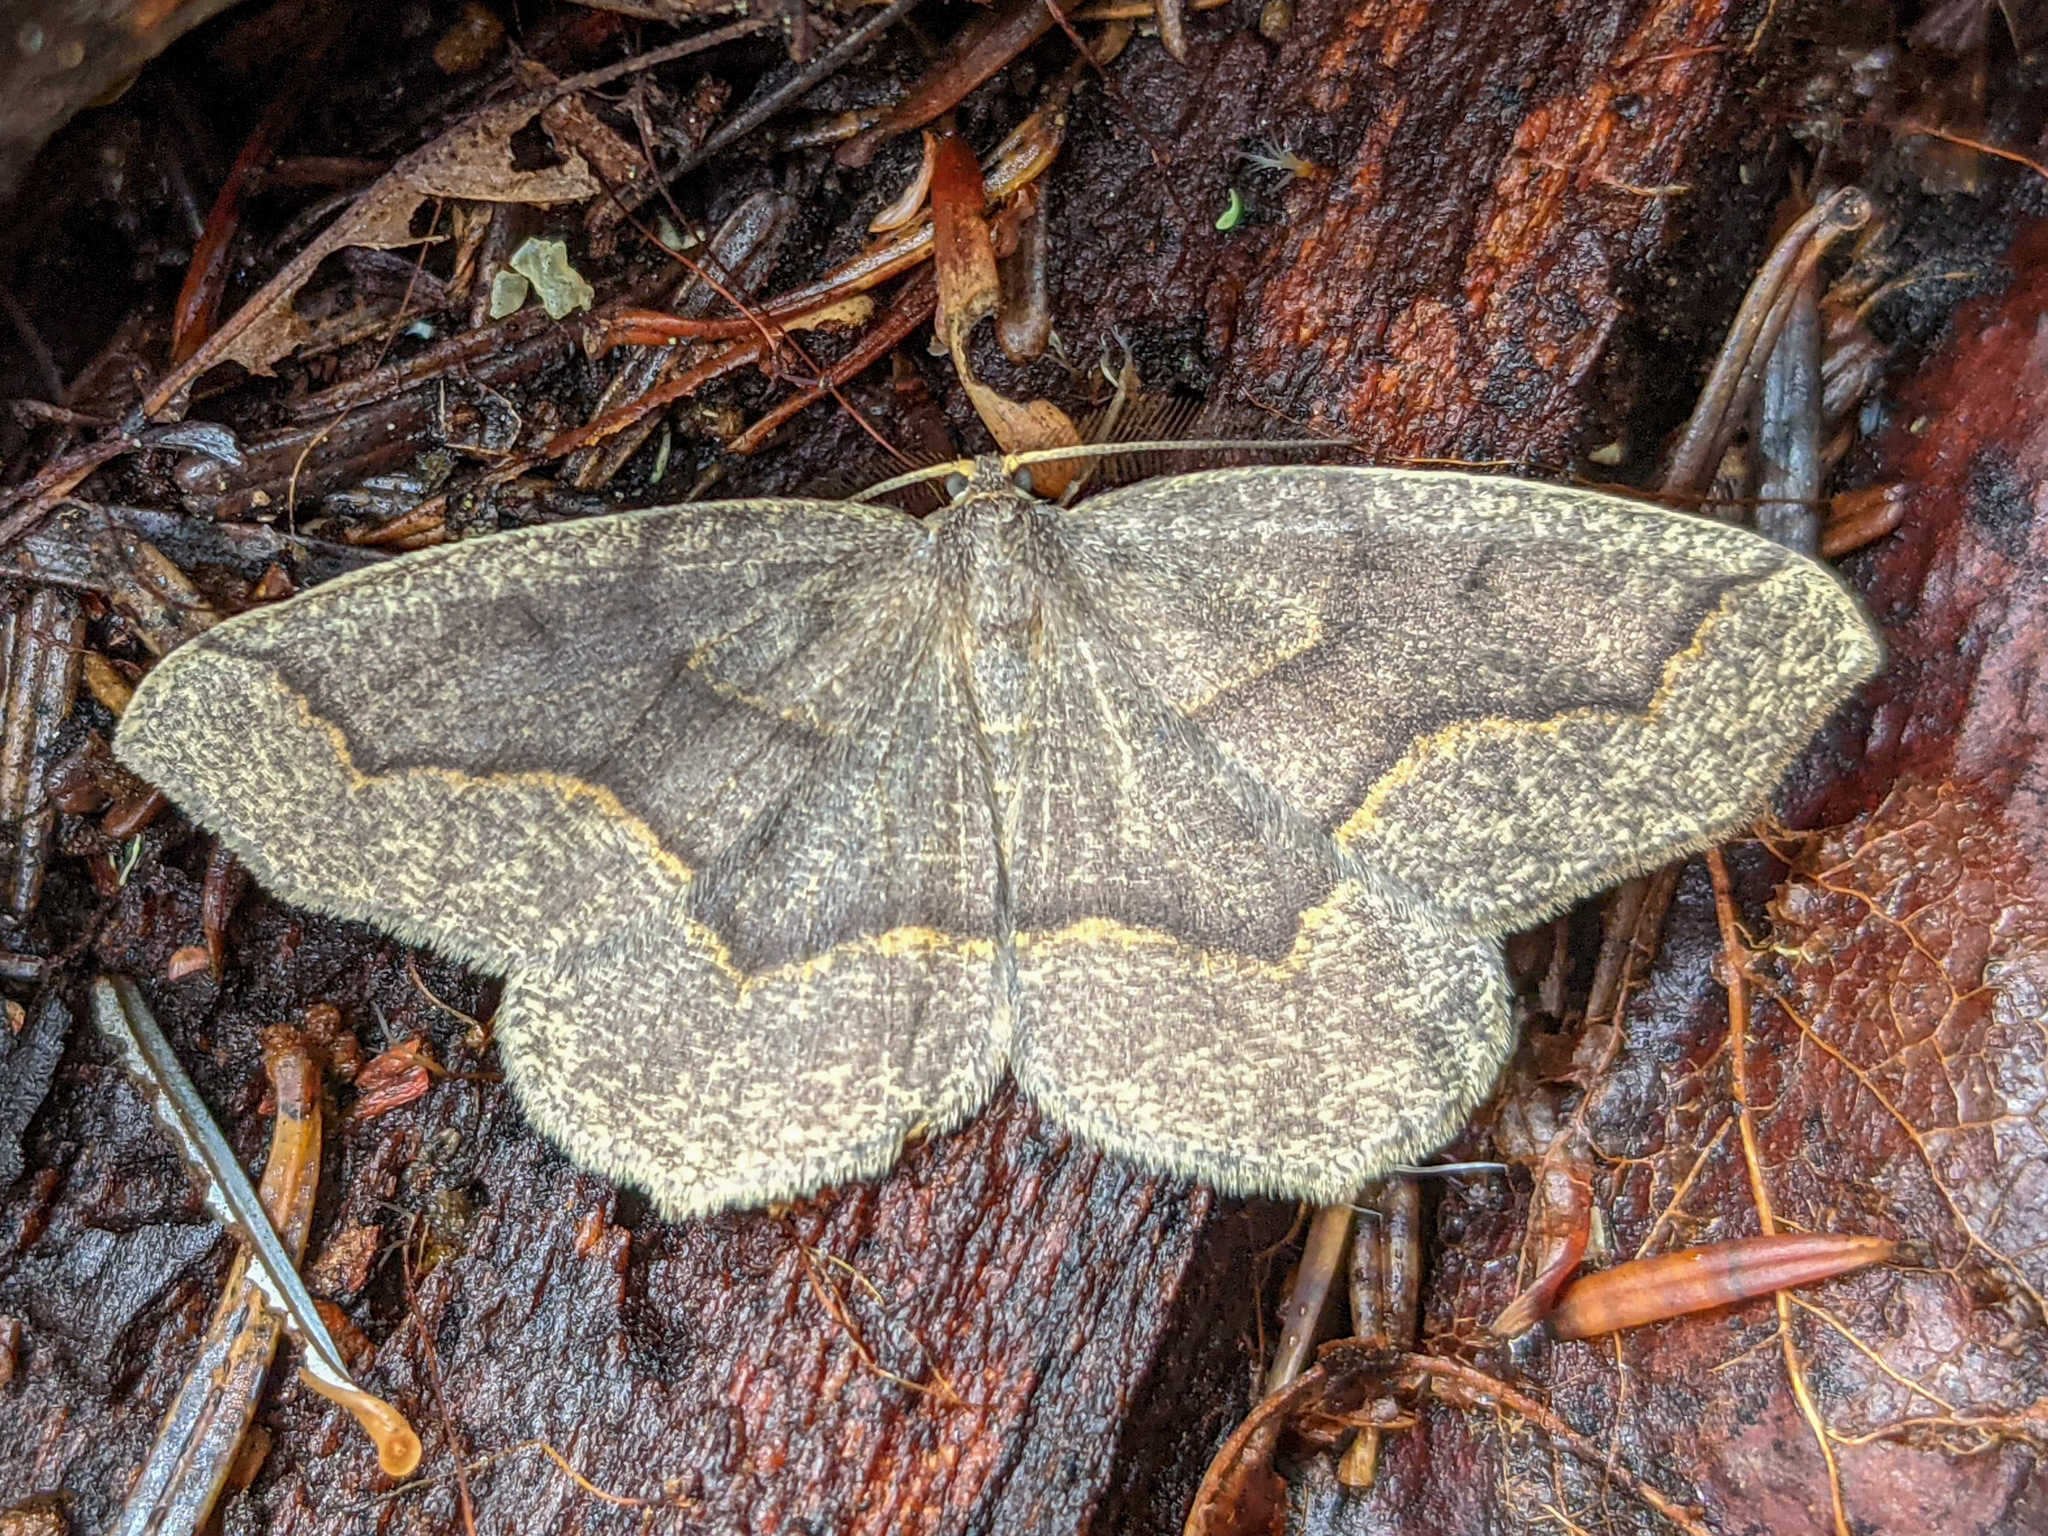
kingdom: Animalia
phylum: Arthropoda
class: Insecta
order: Lepidoptera
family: Geometridae
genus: Lambdina
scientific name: Lambdina fiscellaria
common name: Hemlock looper
